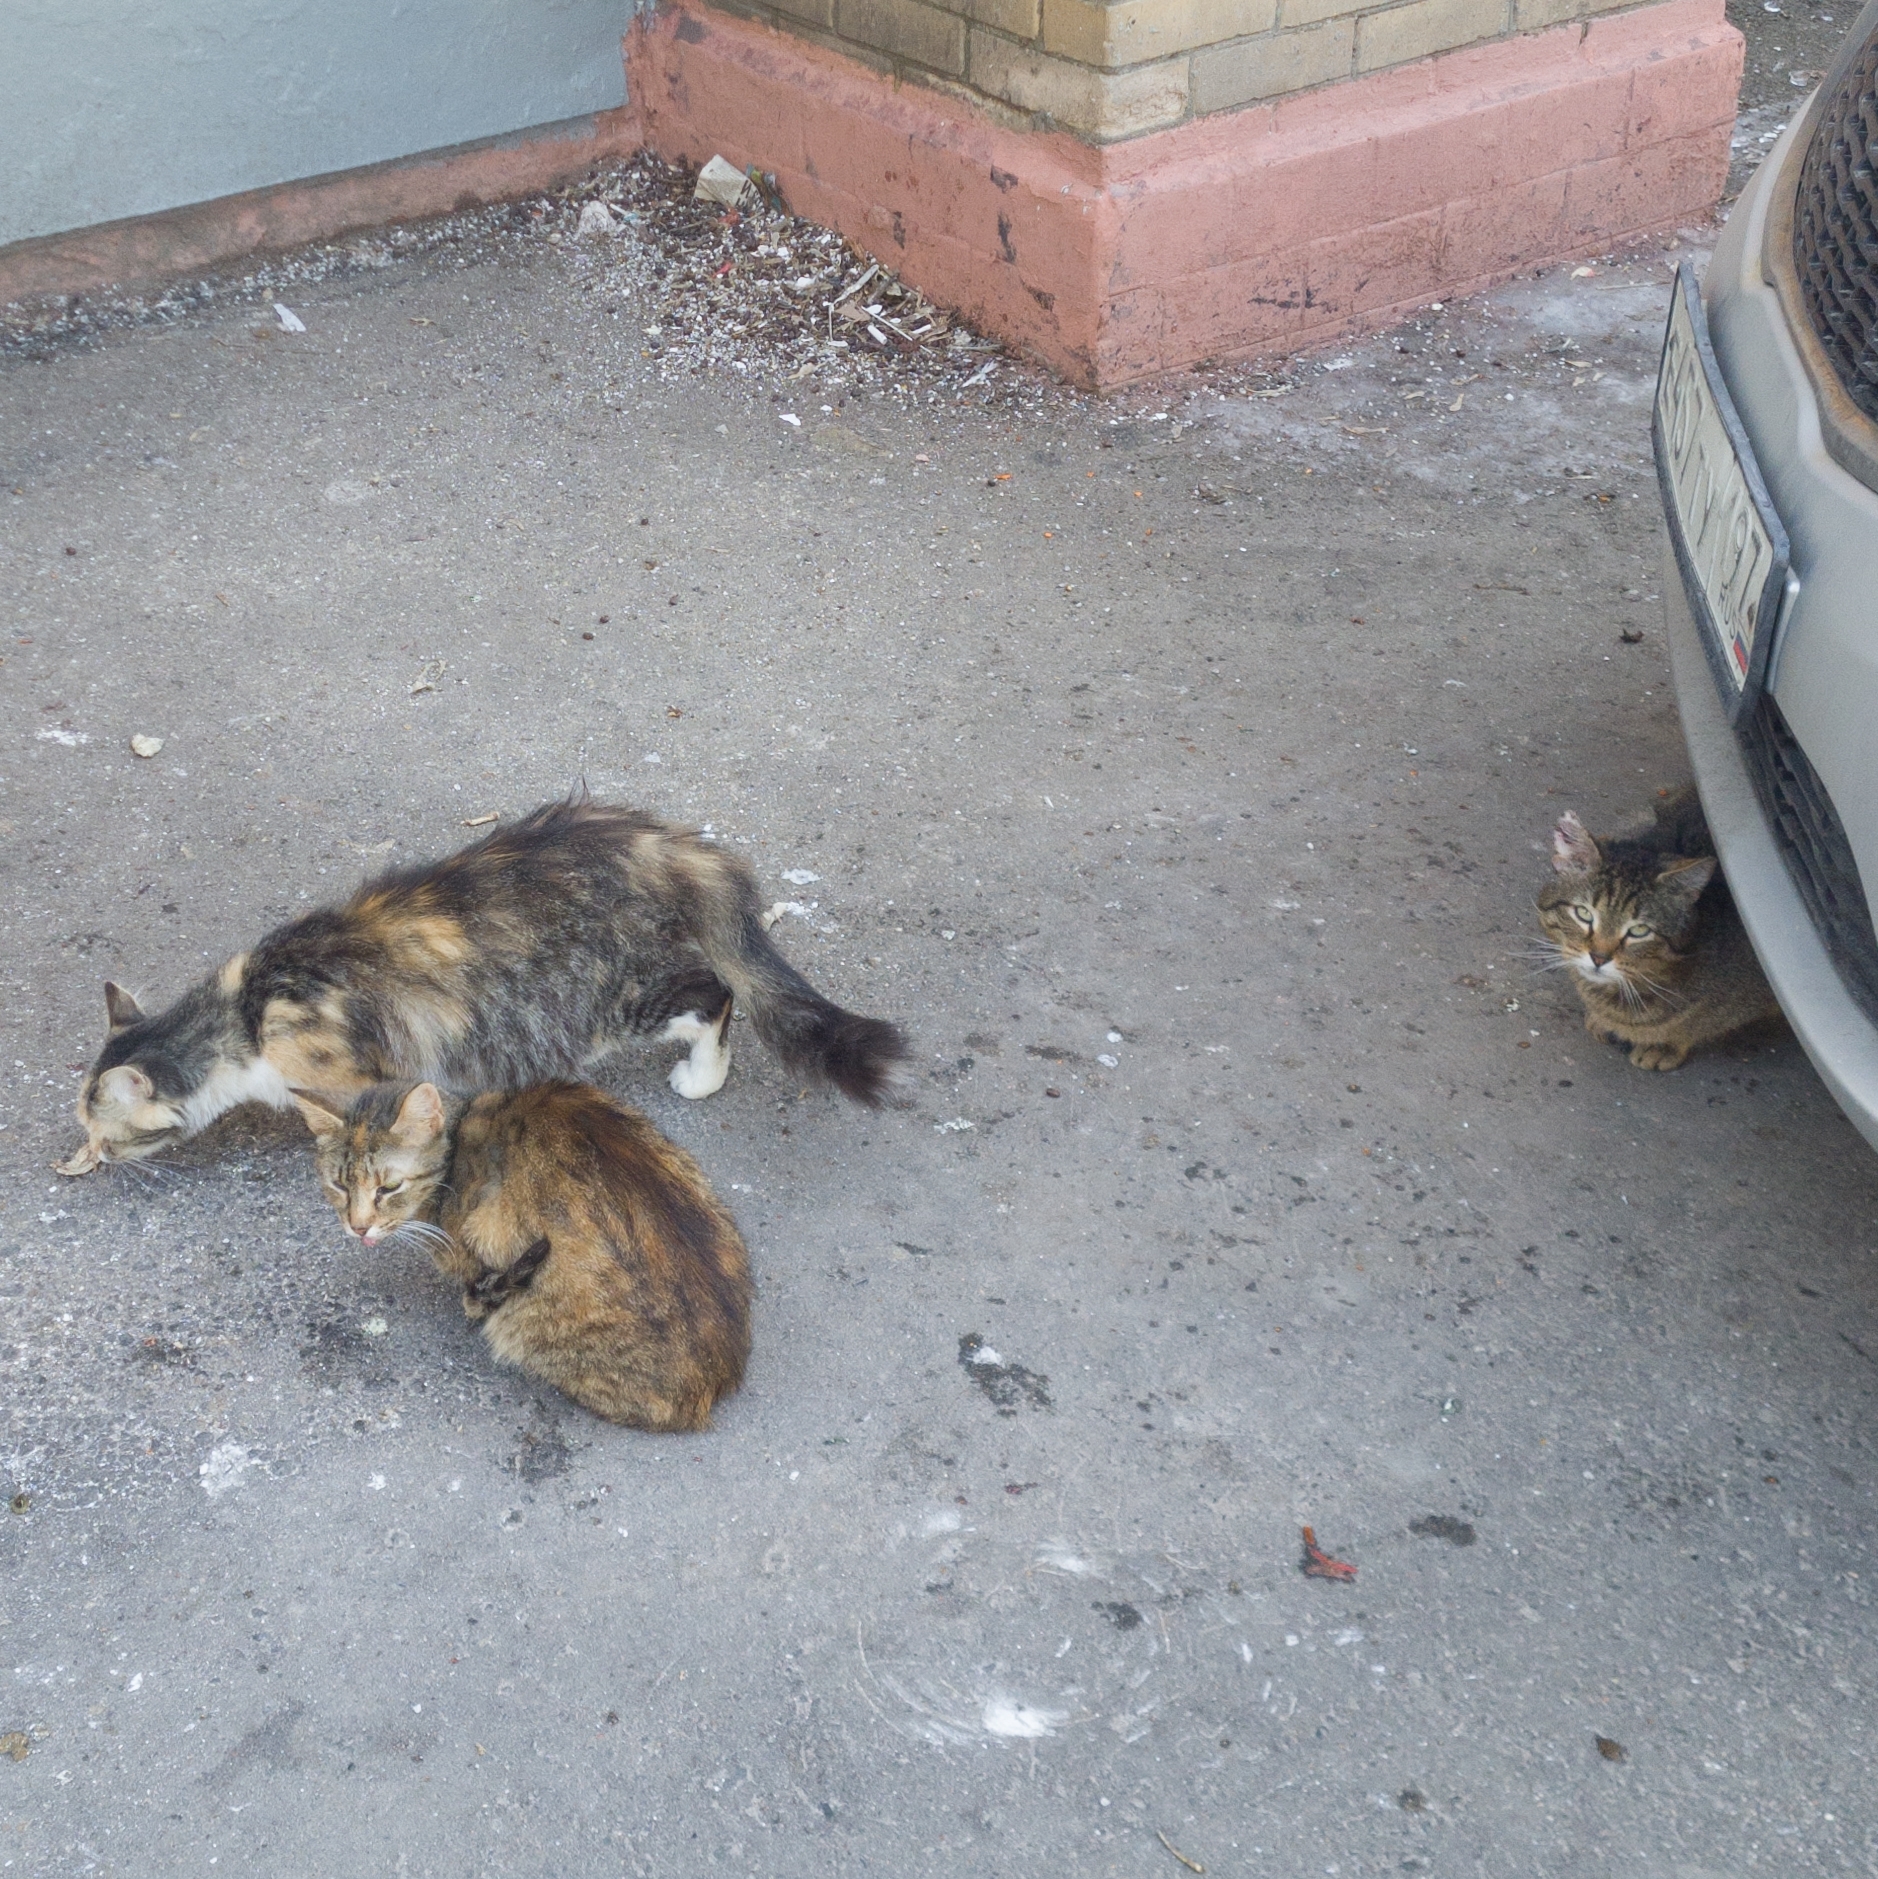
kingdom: Animalia
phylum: Chordata
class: Mammalia
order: Carnivora
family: Felidae
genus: Felis
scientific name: Felis catus
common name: Domestic cat
